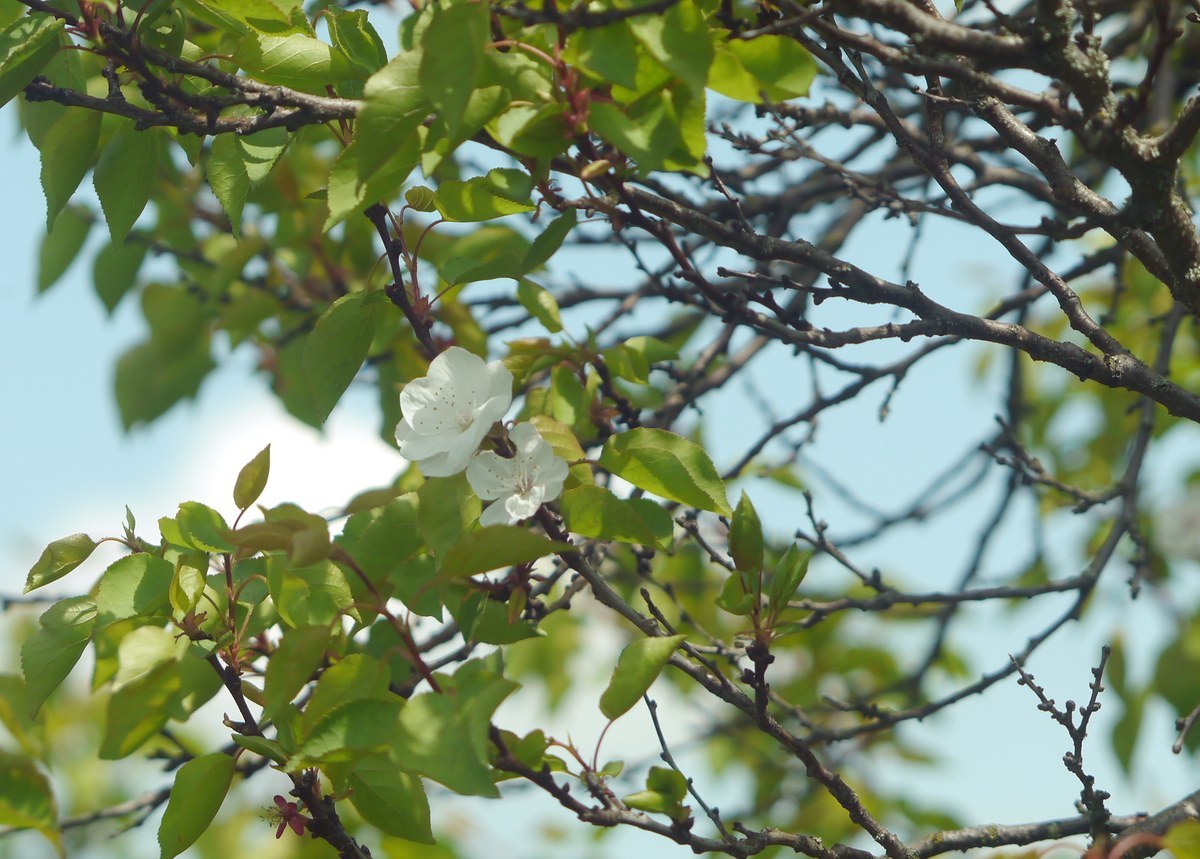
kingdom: Plantae
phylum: Tracheophyta
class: Magnoliopsida
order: Rosales
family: Rosaceae
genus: Prunus
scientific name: Prunus armeniaca
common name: Apricot
